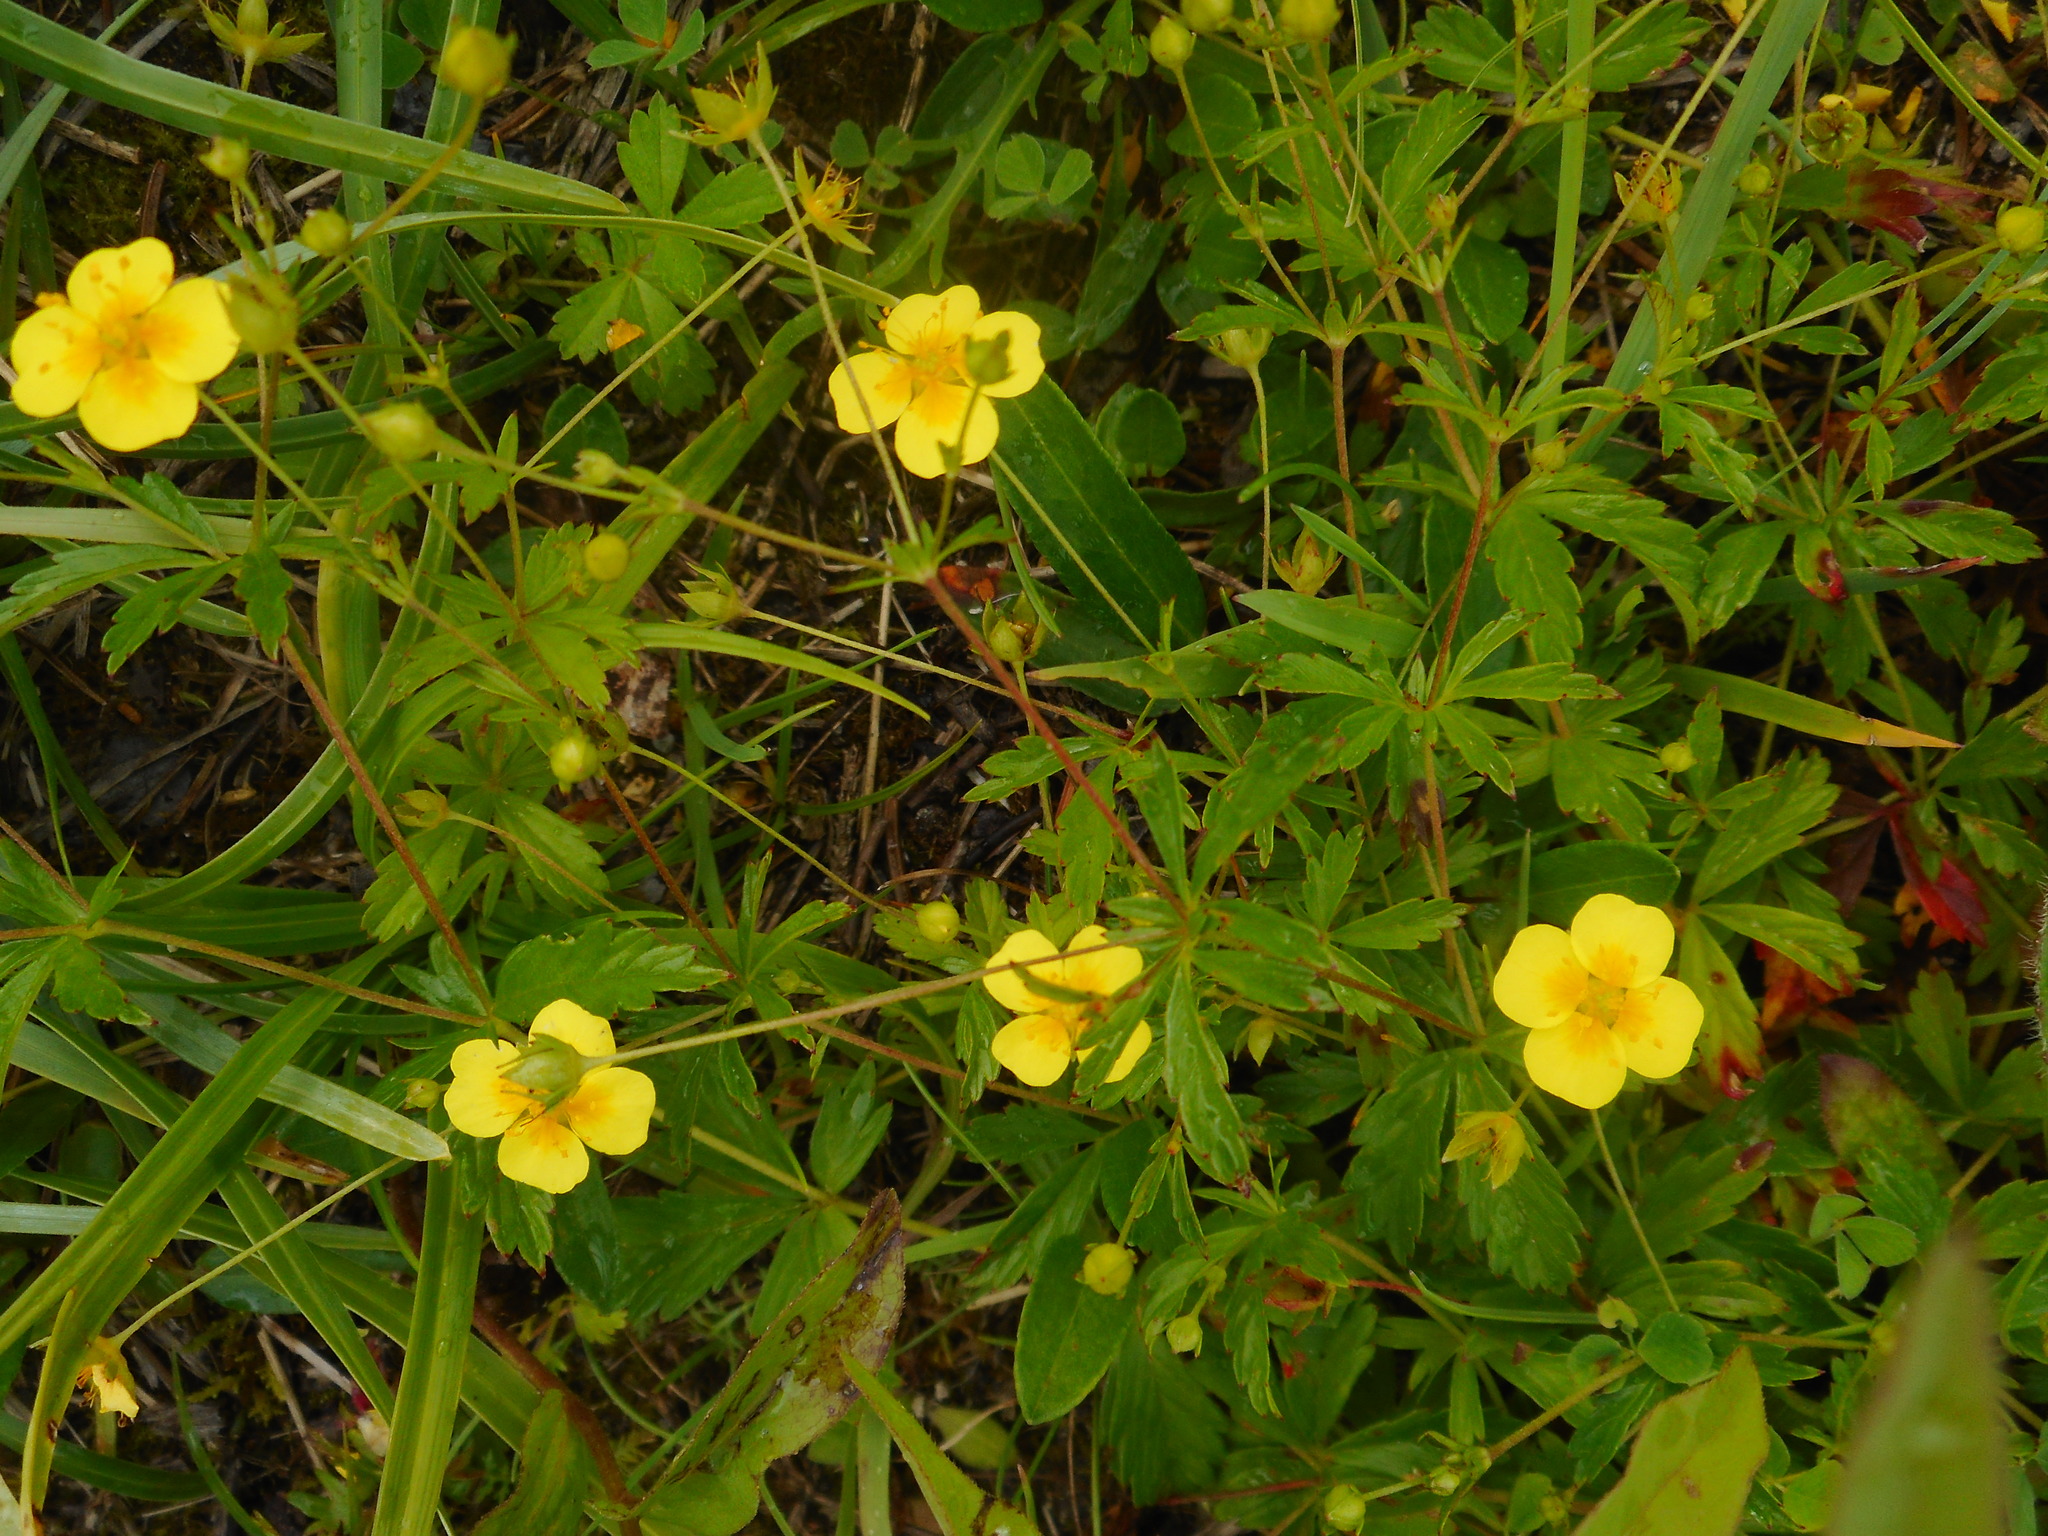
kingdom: Plantae
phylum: Tracheophyta
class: Magnoliopsida
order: Rosales
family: Rosaceae
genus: Potentilla
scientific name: Potentilla erecta
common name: Tormentil
